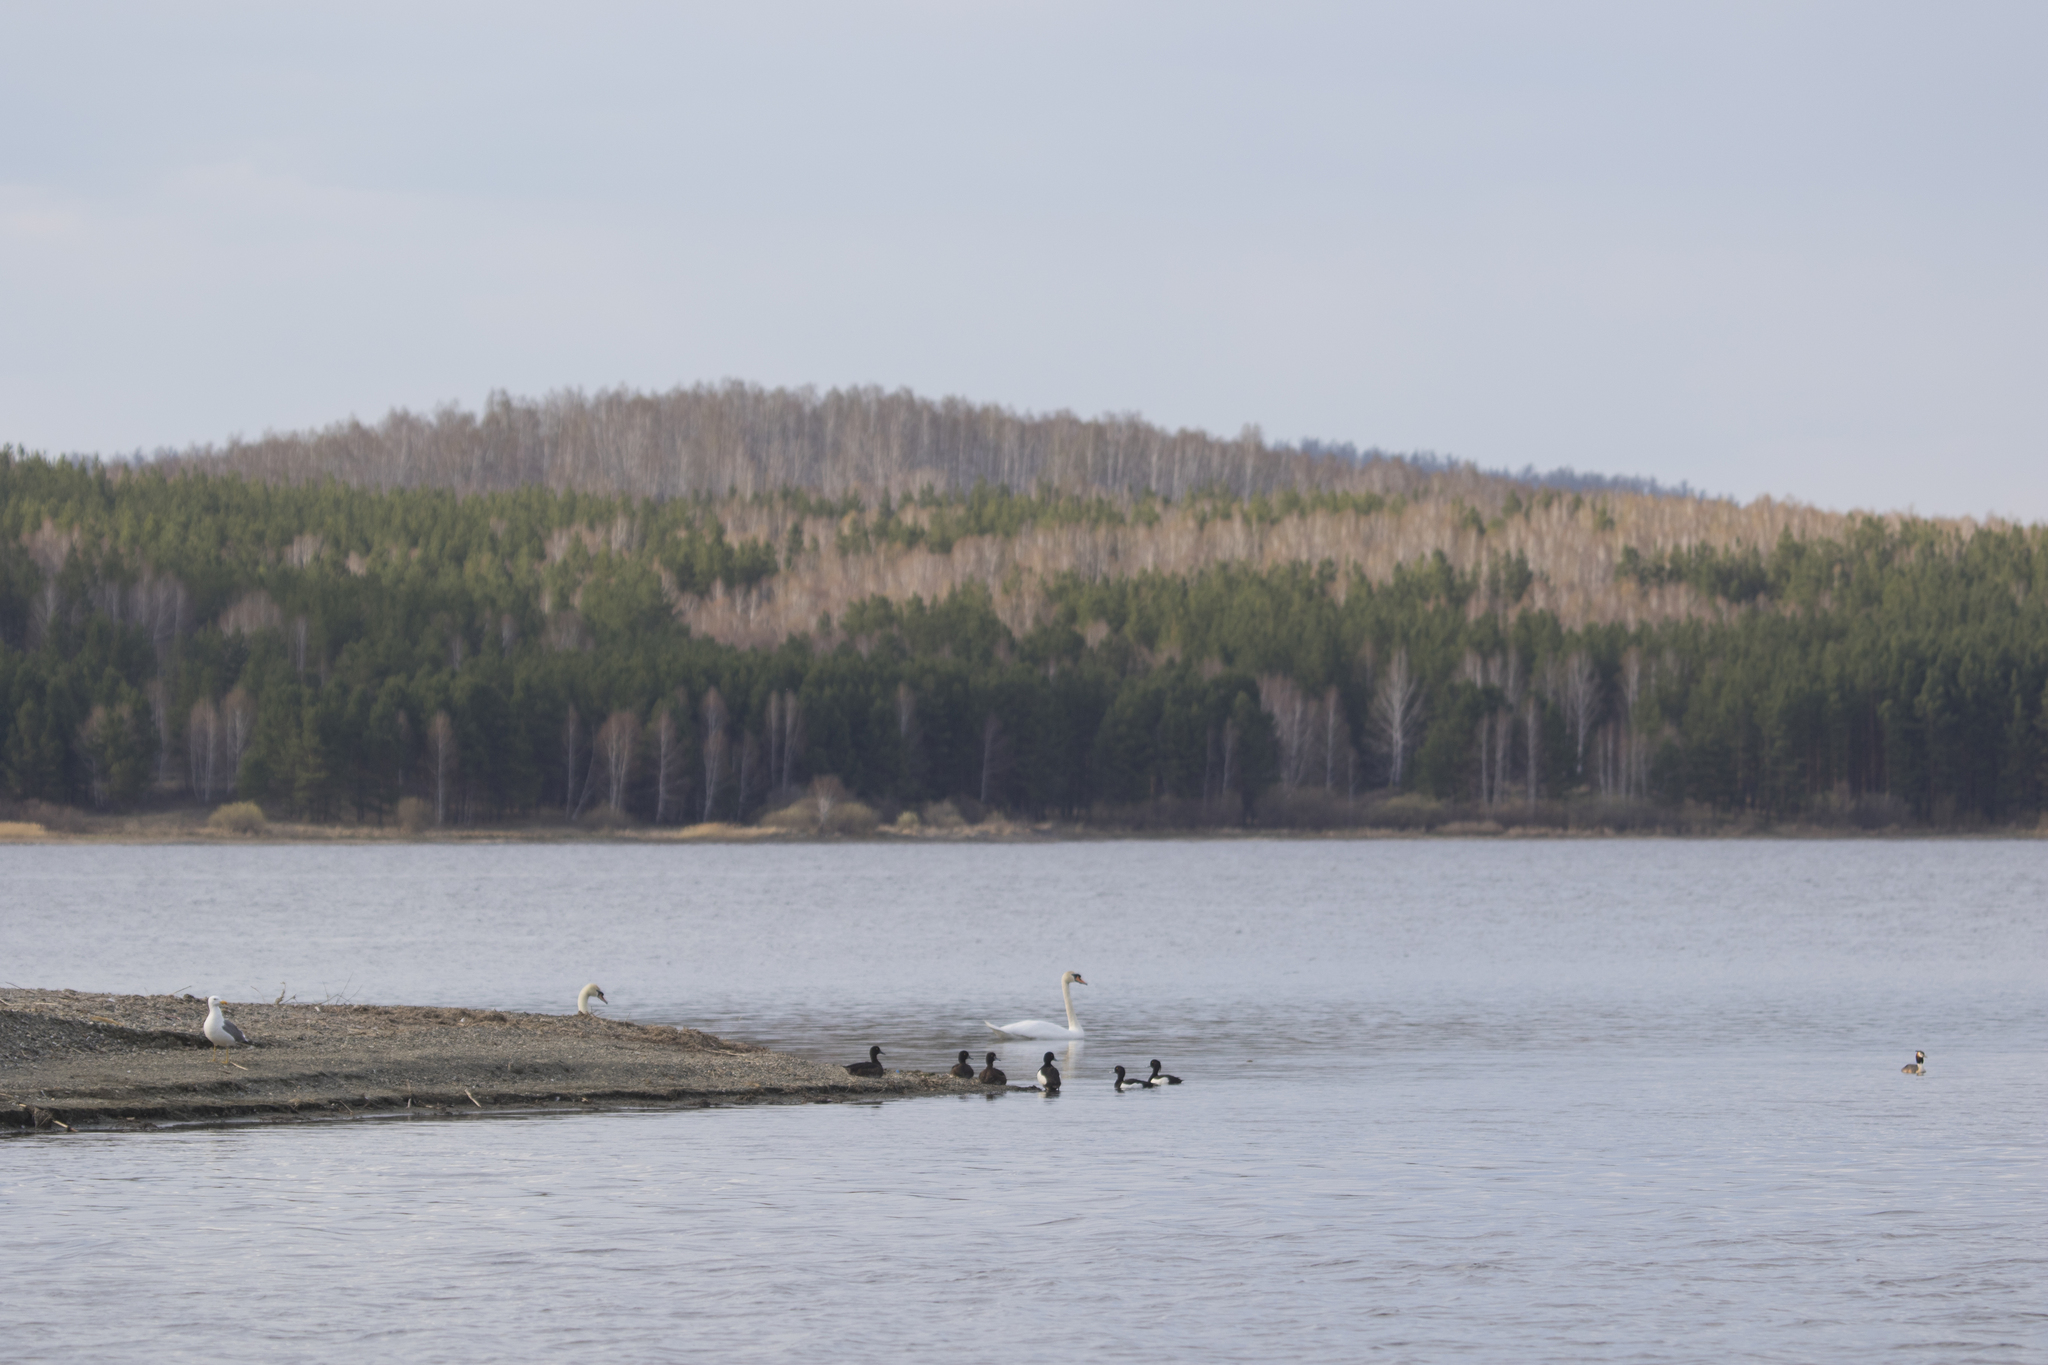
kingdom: Animalia
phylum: Chordata
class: Aves
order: Anseriformes
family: Anatidae
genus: Cygnus
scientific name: Cygnus olor
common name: Mute swan
